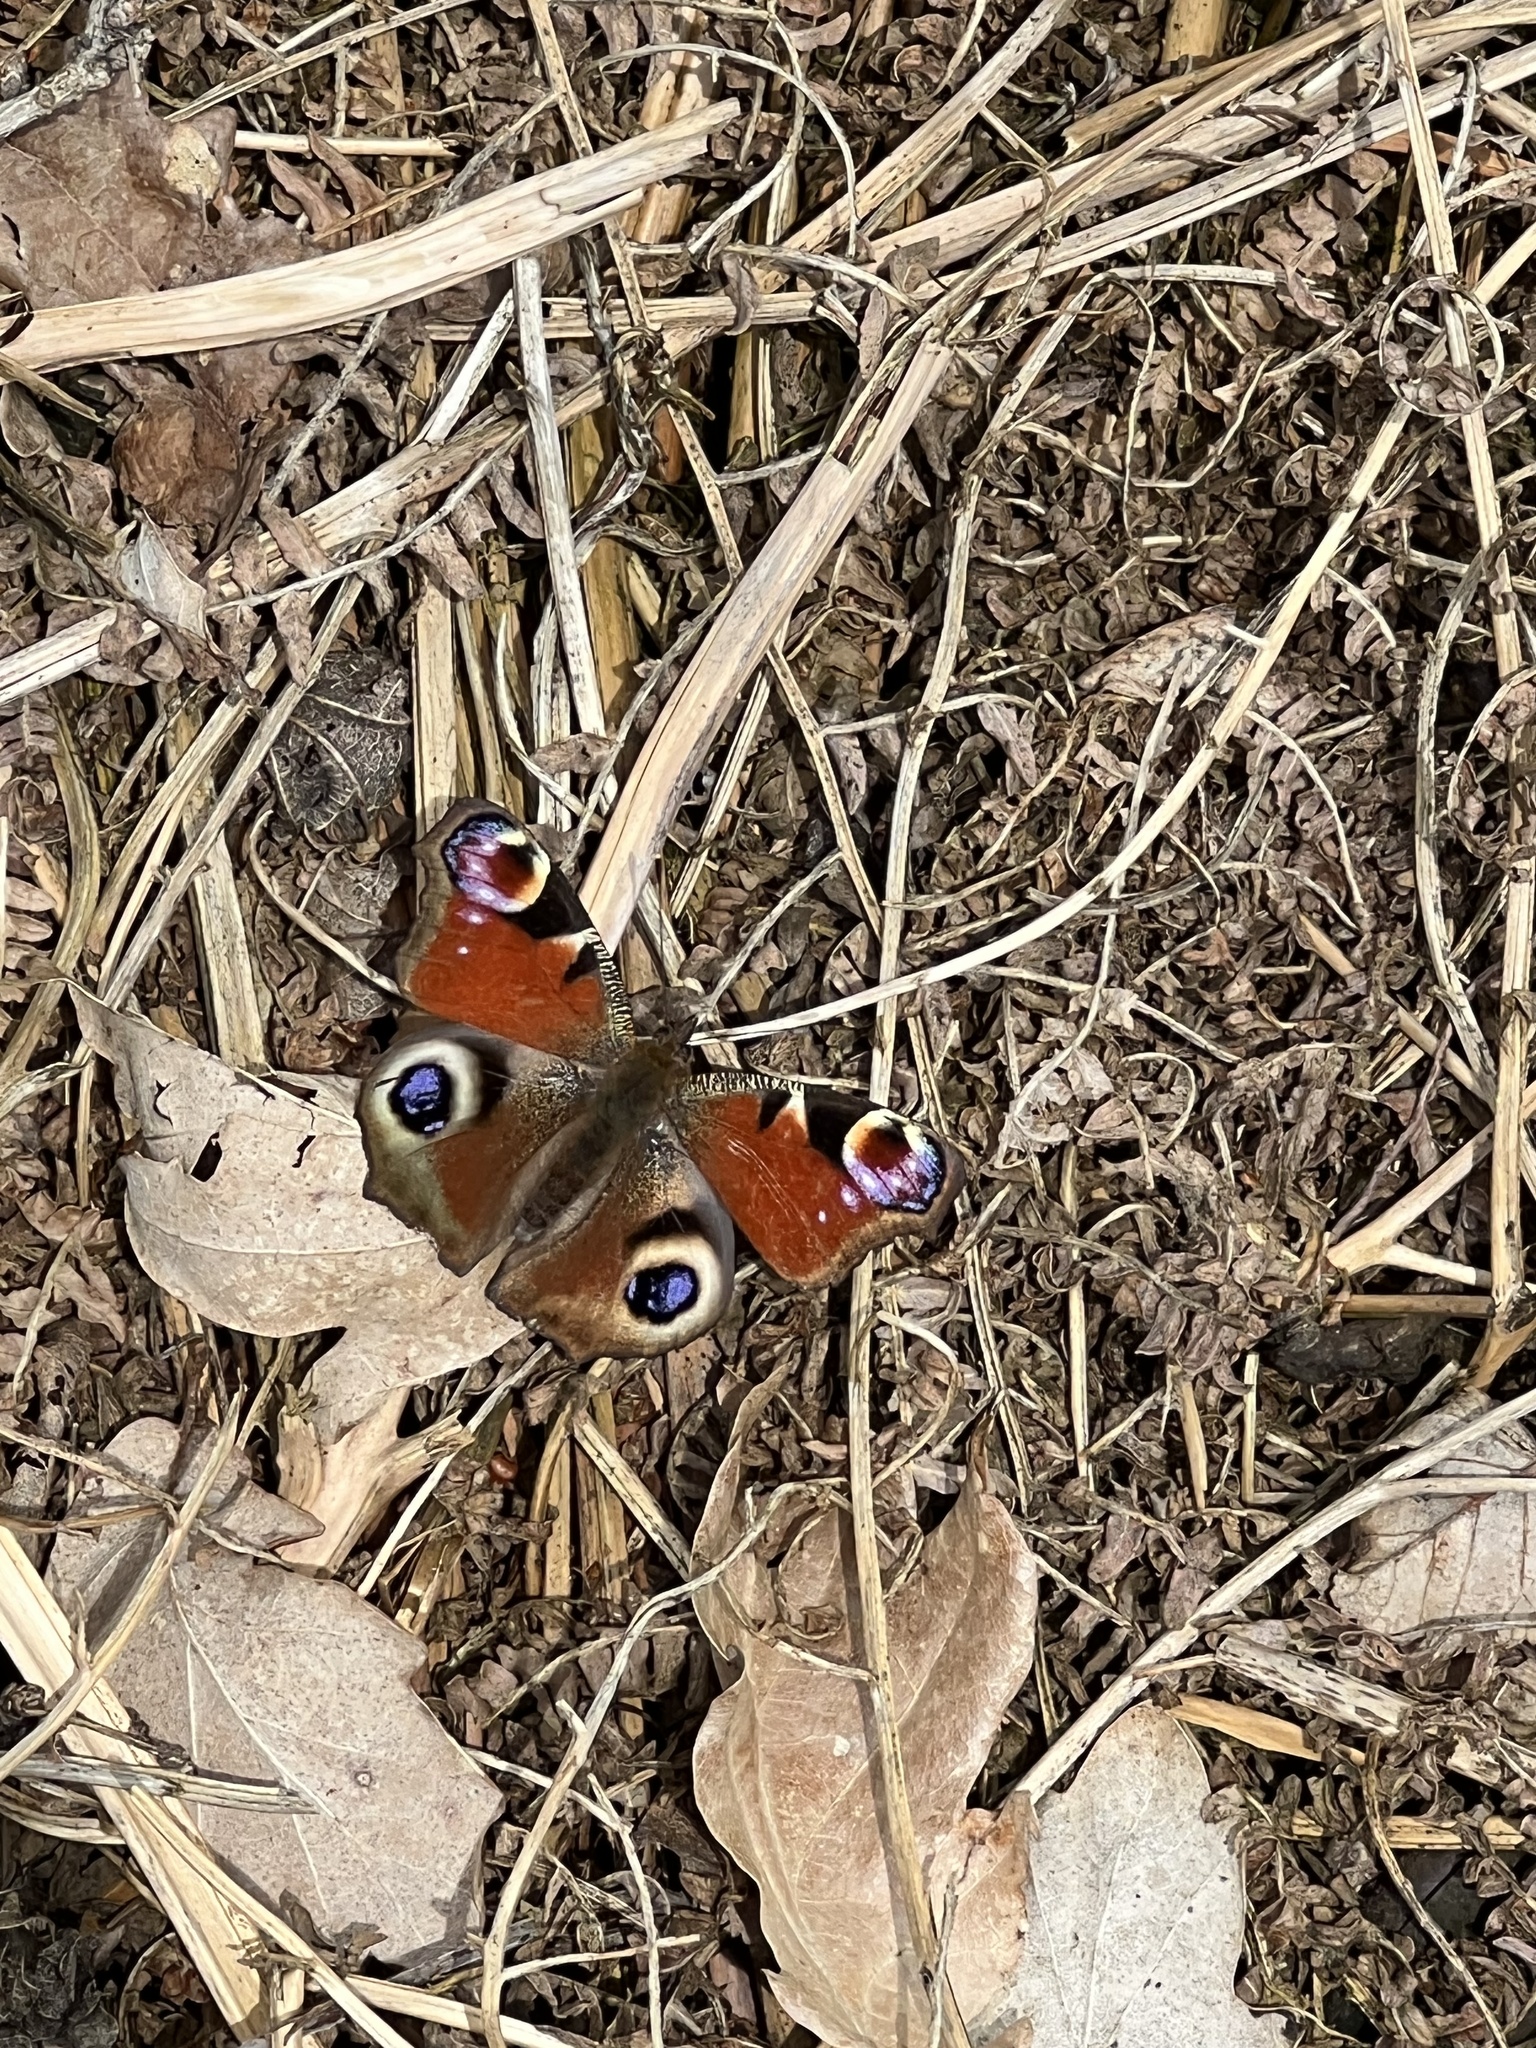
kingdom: Animalia
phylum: Arthropoda
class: Insecta
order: Lepidoptera
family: Nymphalidae
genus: Aglais
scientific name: Aglais io
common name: Peacock
